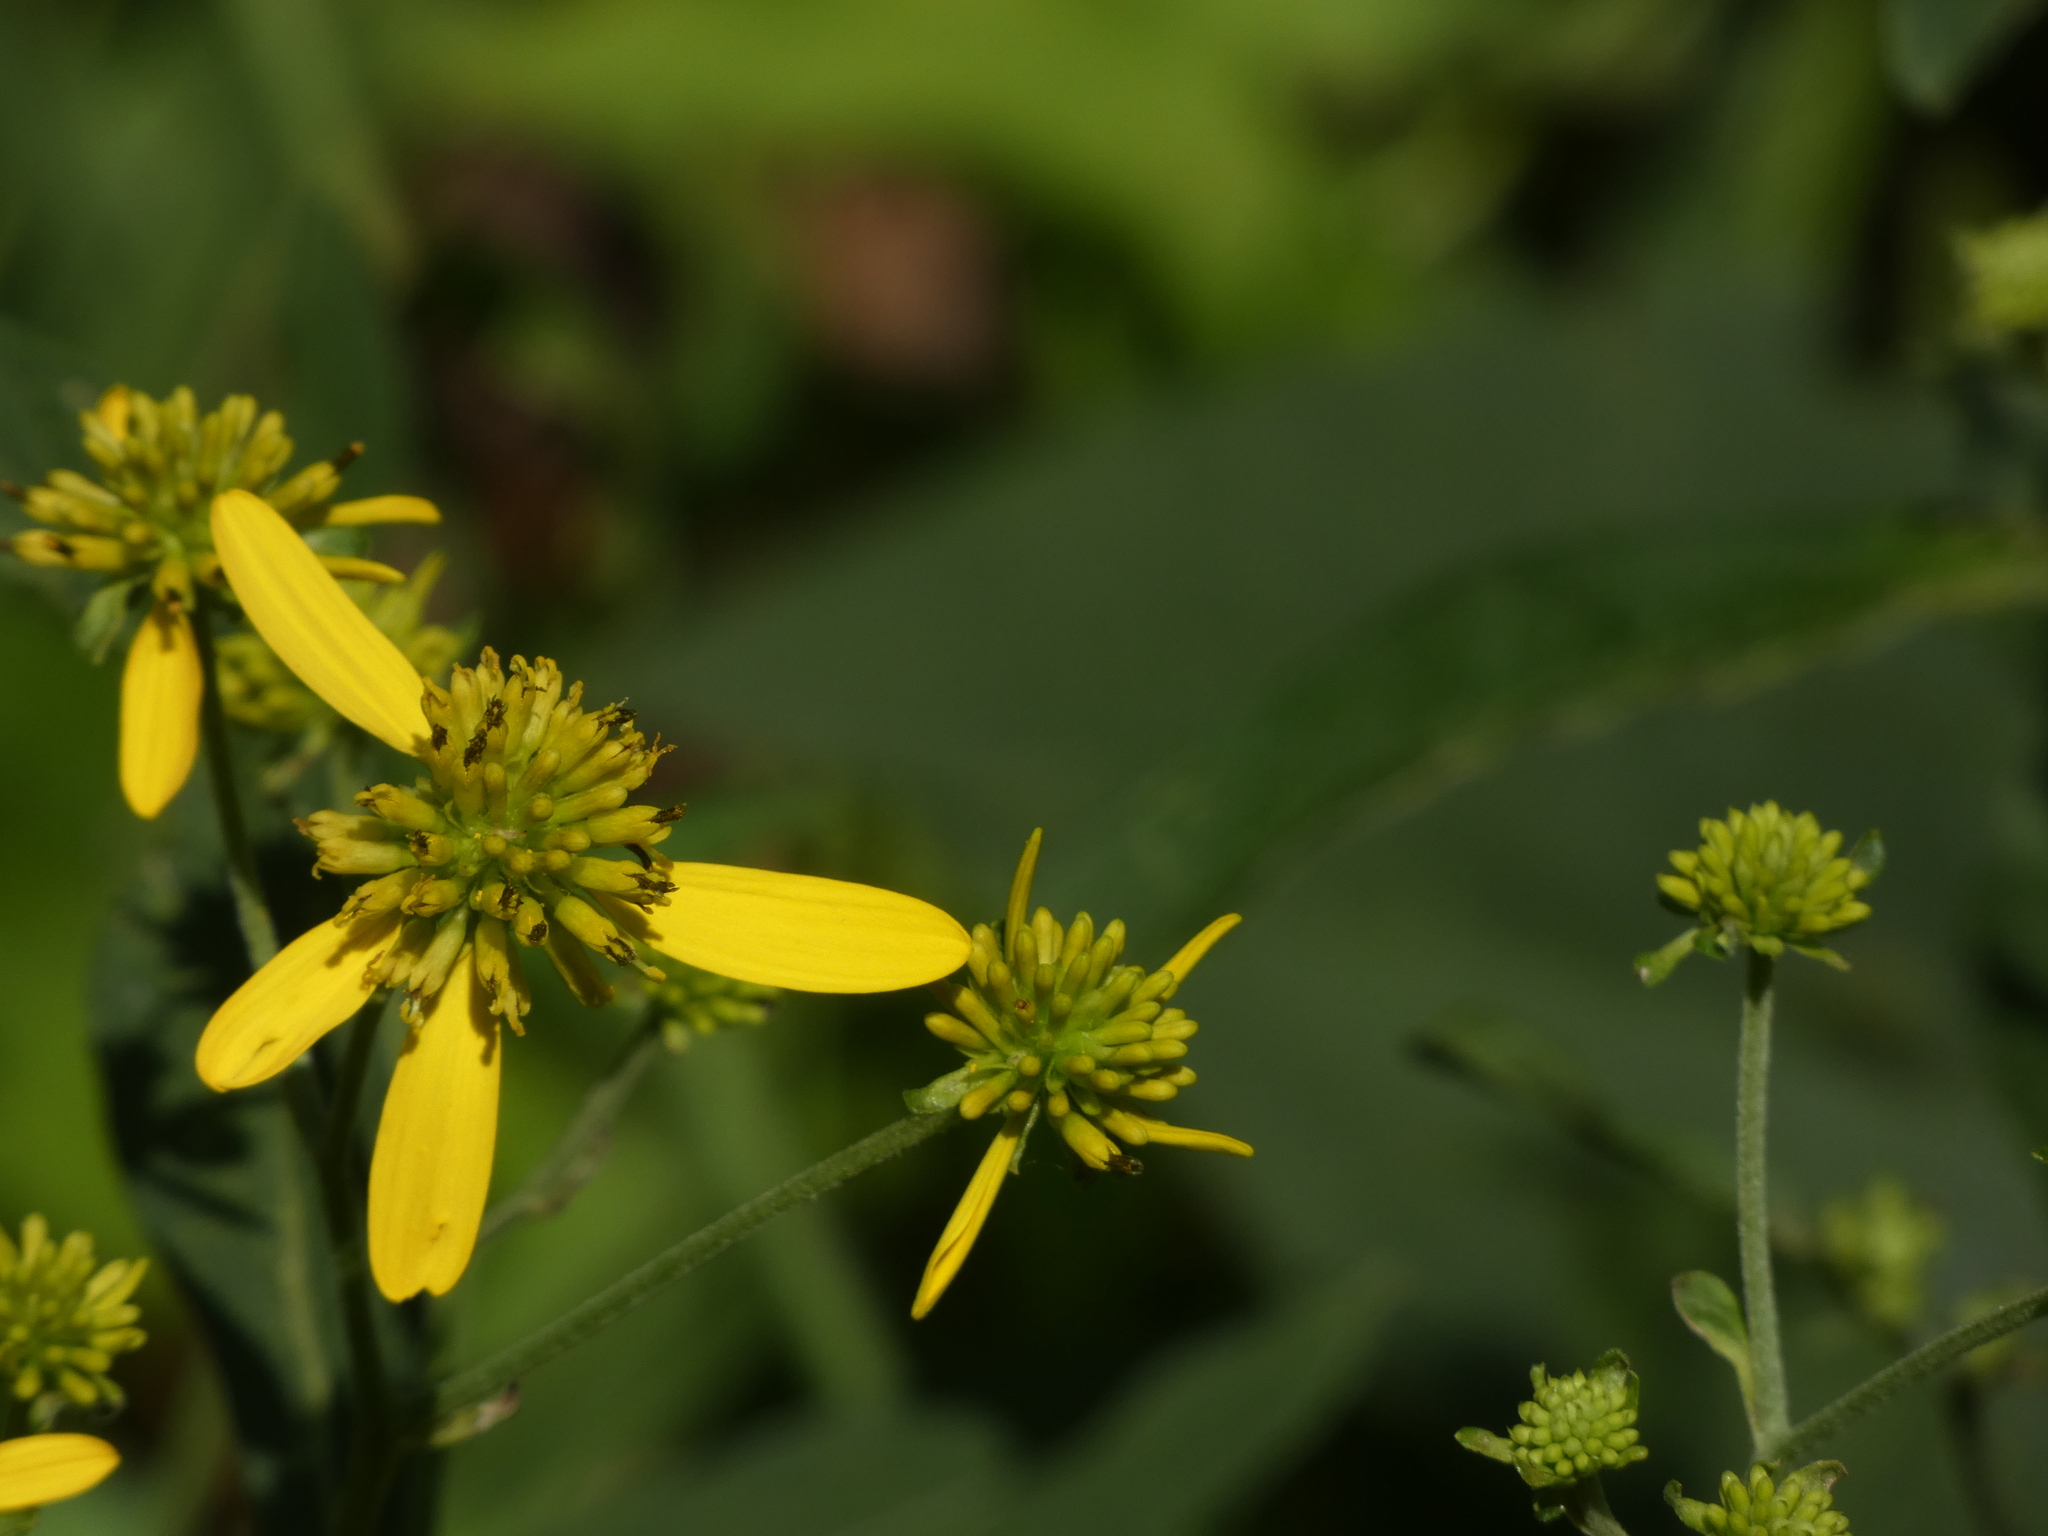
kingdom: Plantae
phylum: Tracheophyta
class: Magnoliopsida
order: Asterales
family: Asteraceae
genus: Verbesina
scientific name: Verbesina alternifolia
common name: Wingstem
